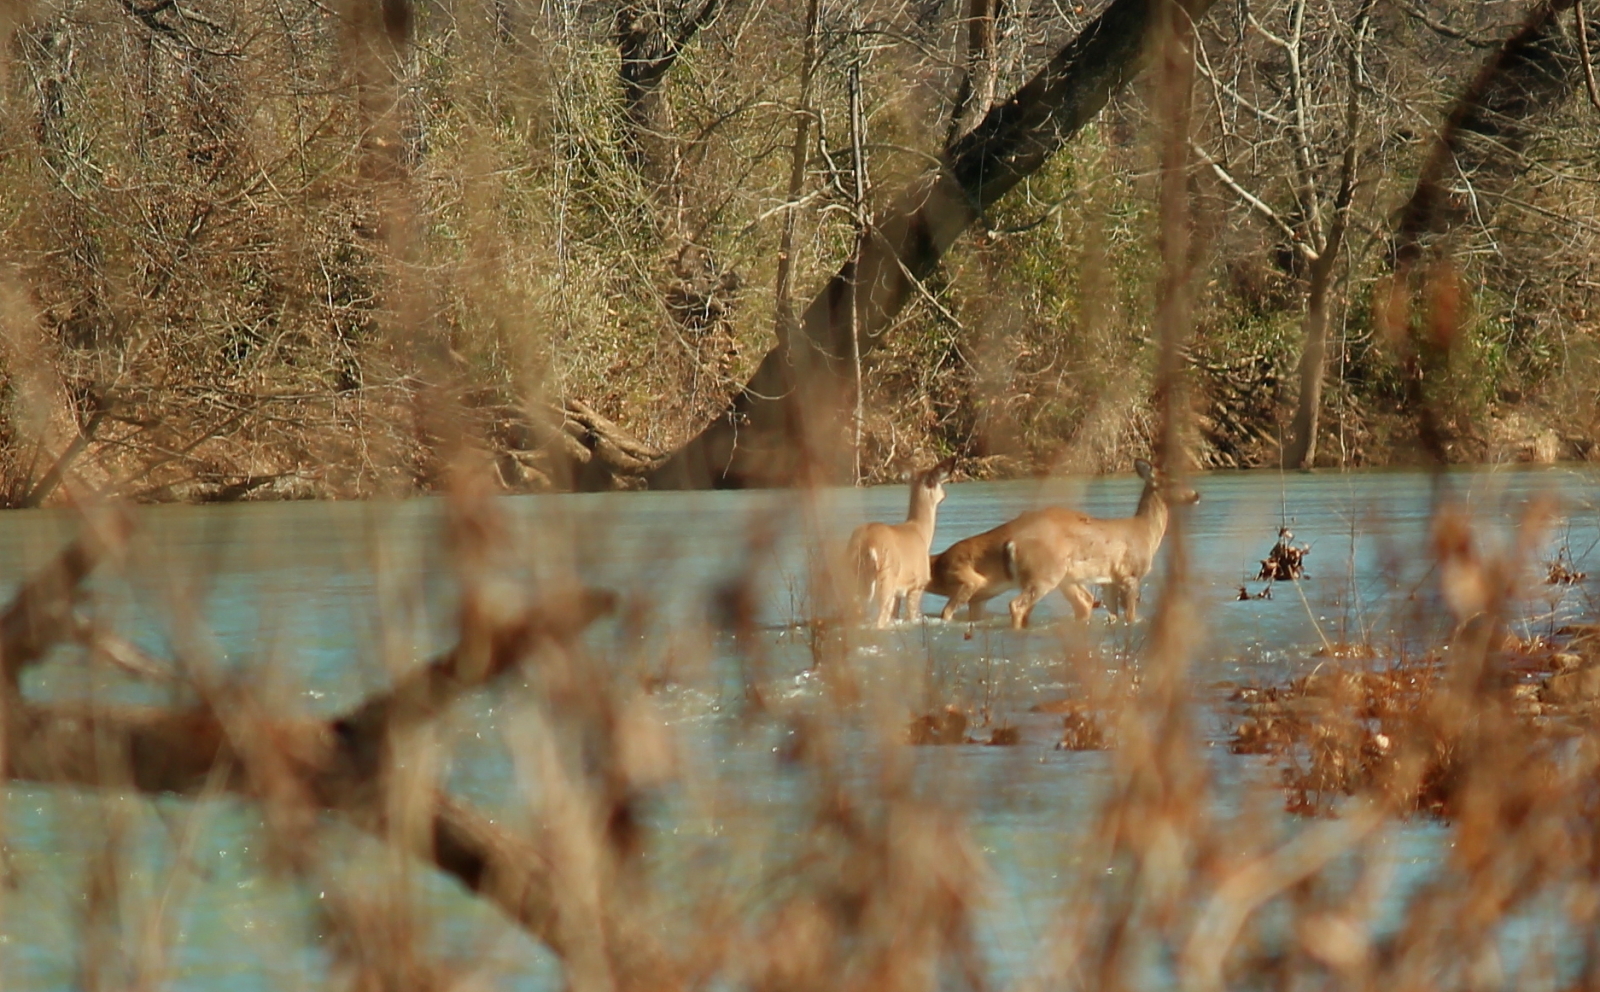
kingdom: Animalia
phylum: Chordata
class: Mammalia
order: Artiodactyla
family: Cervidae
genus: Odocoileus
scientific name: Odocoileus virginianus
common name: White-tailed deer
